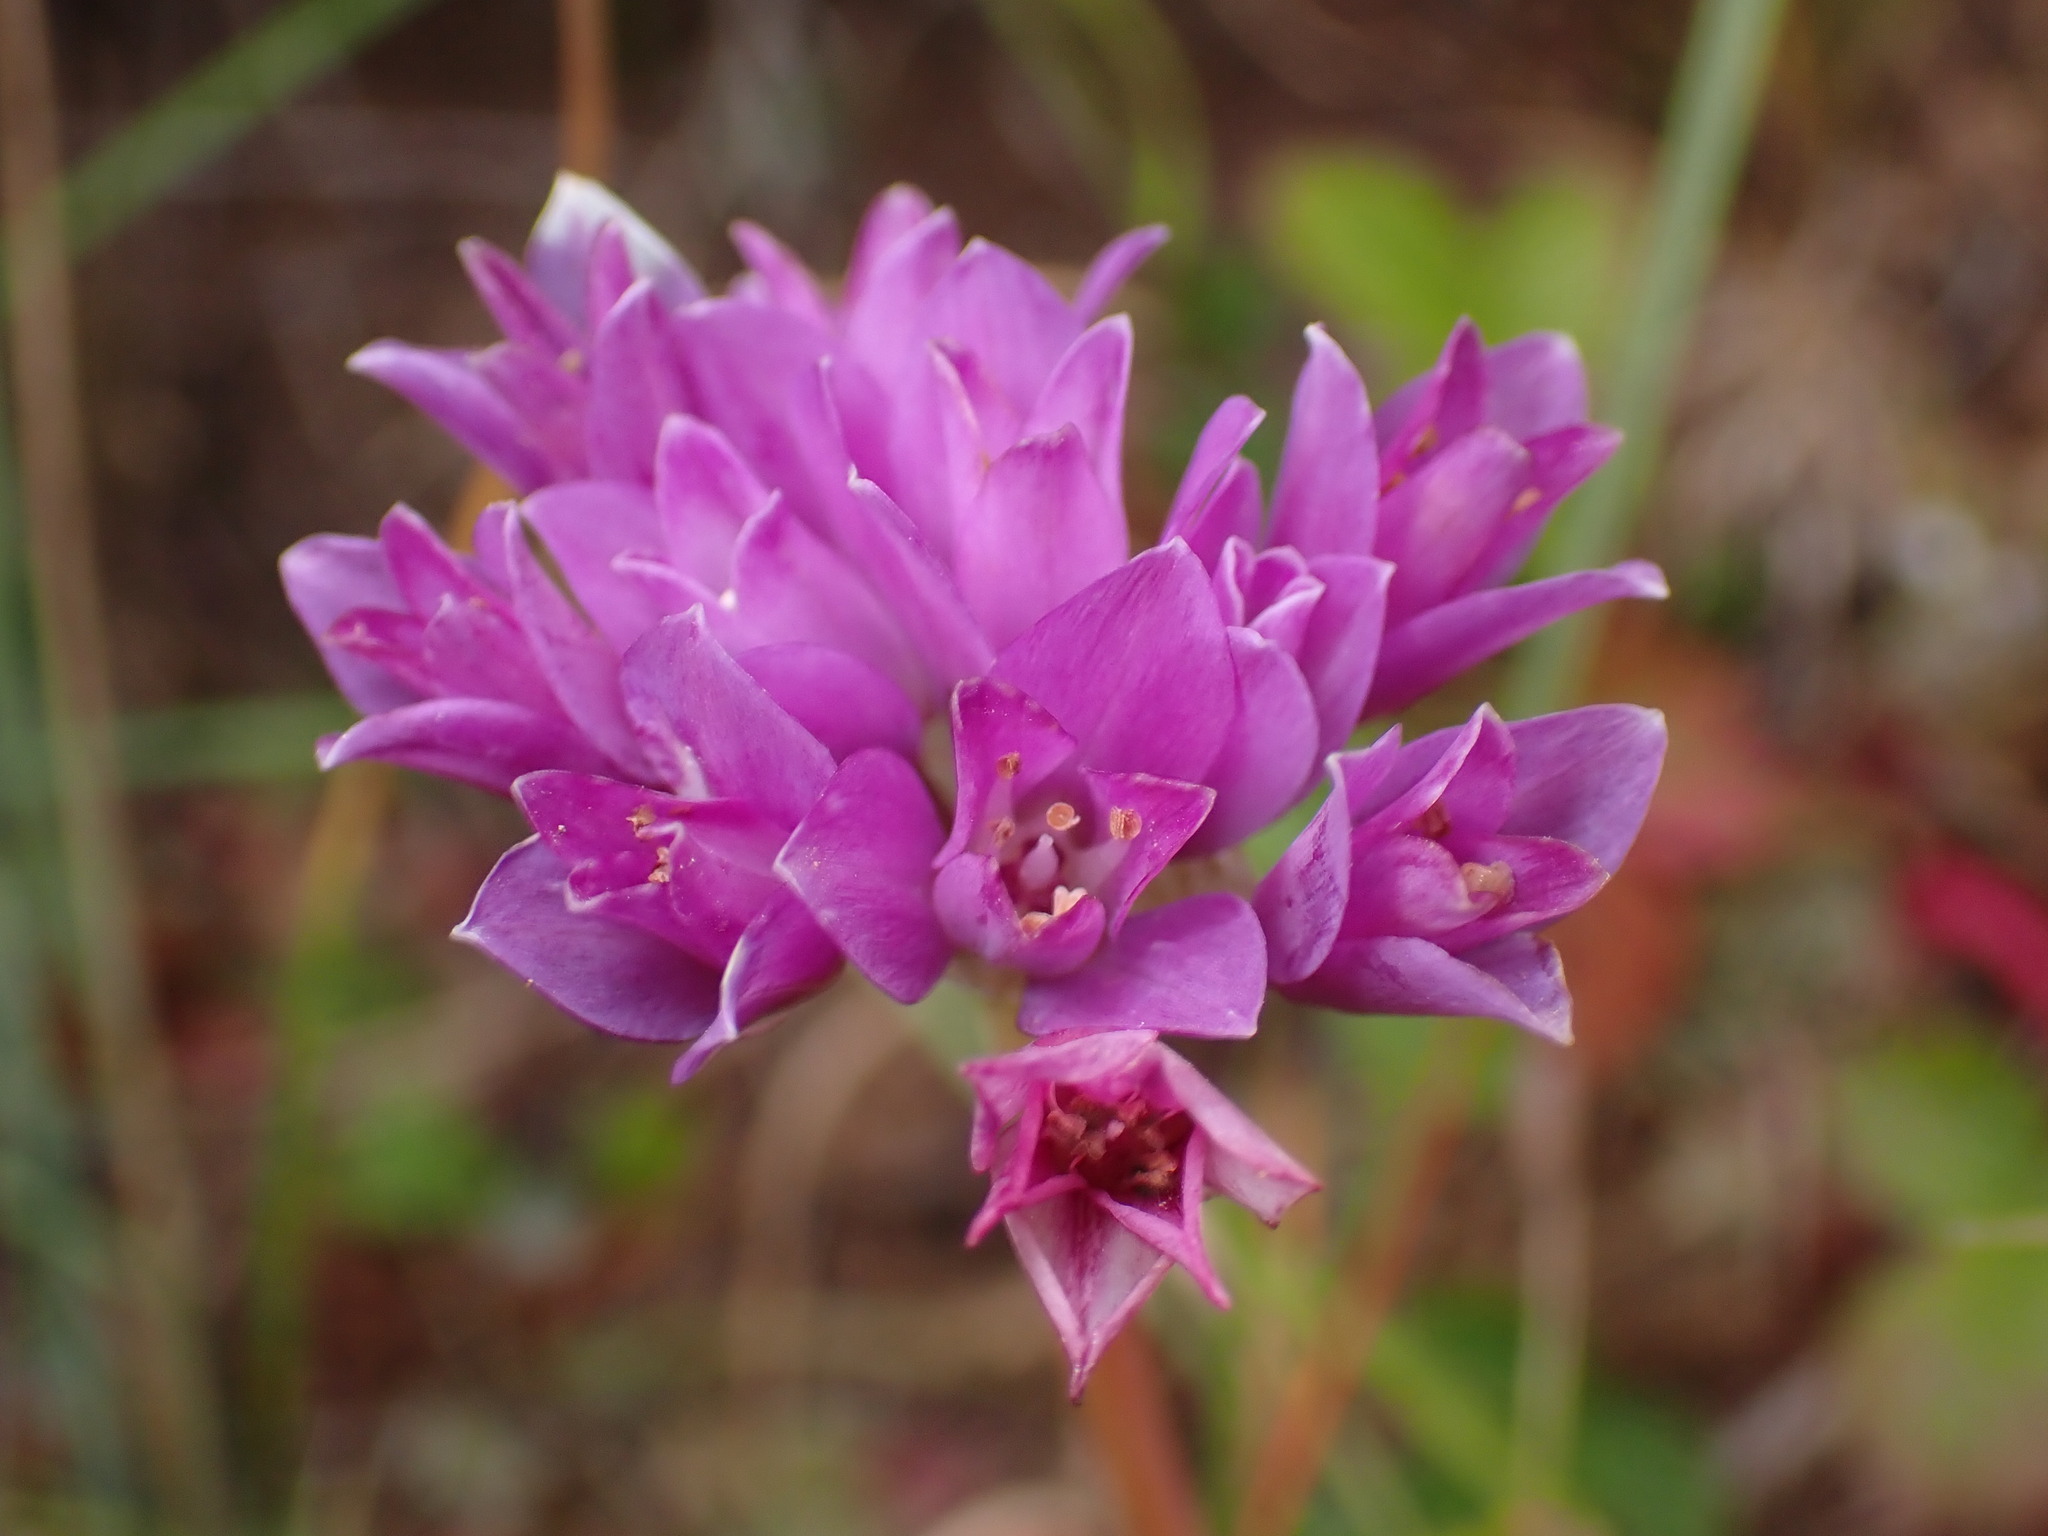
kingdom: Plantae
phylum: Tracheophyta
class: Liliopsida
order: Asparagales
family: Amaryllidaceae
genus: Allium
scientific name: Allium dichlamydeum
